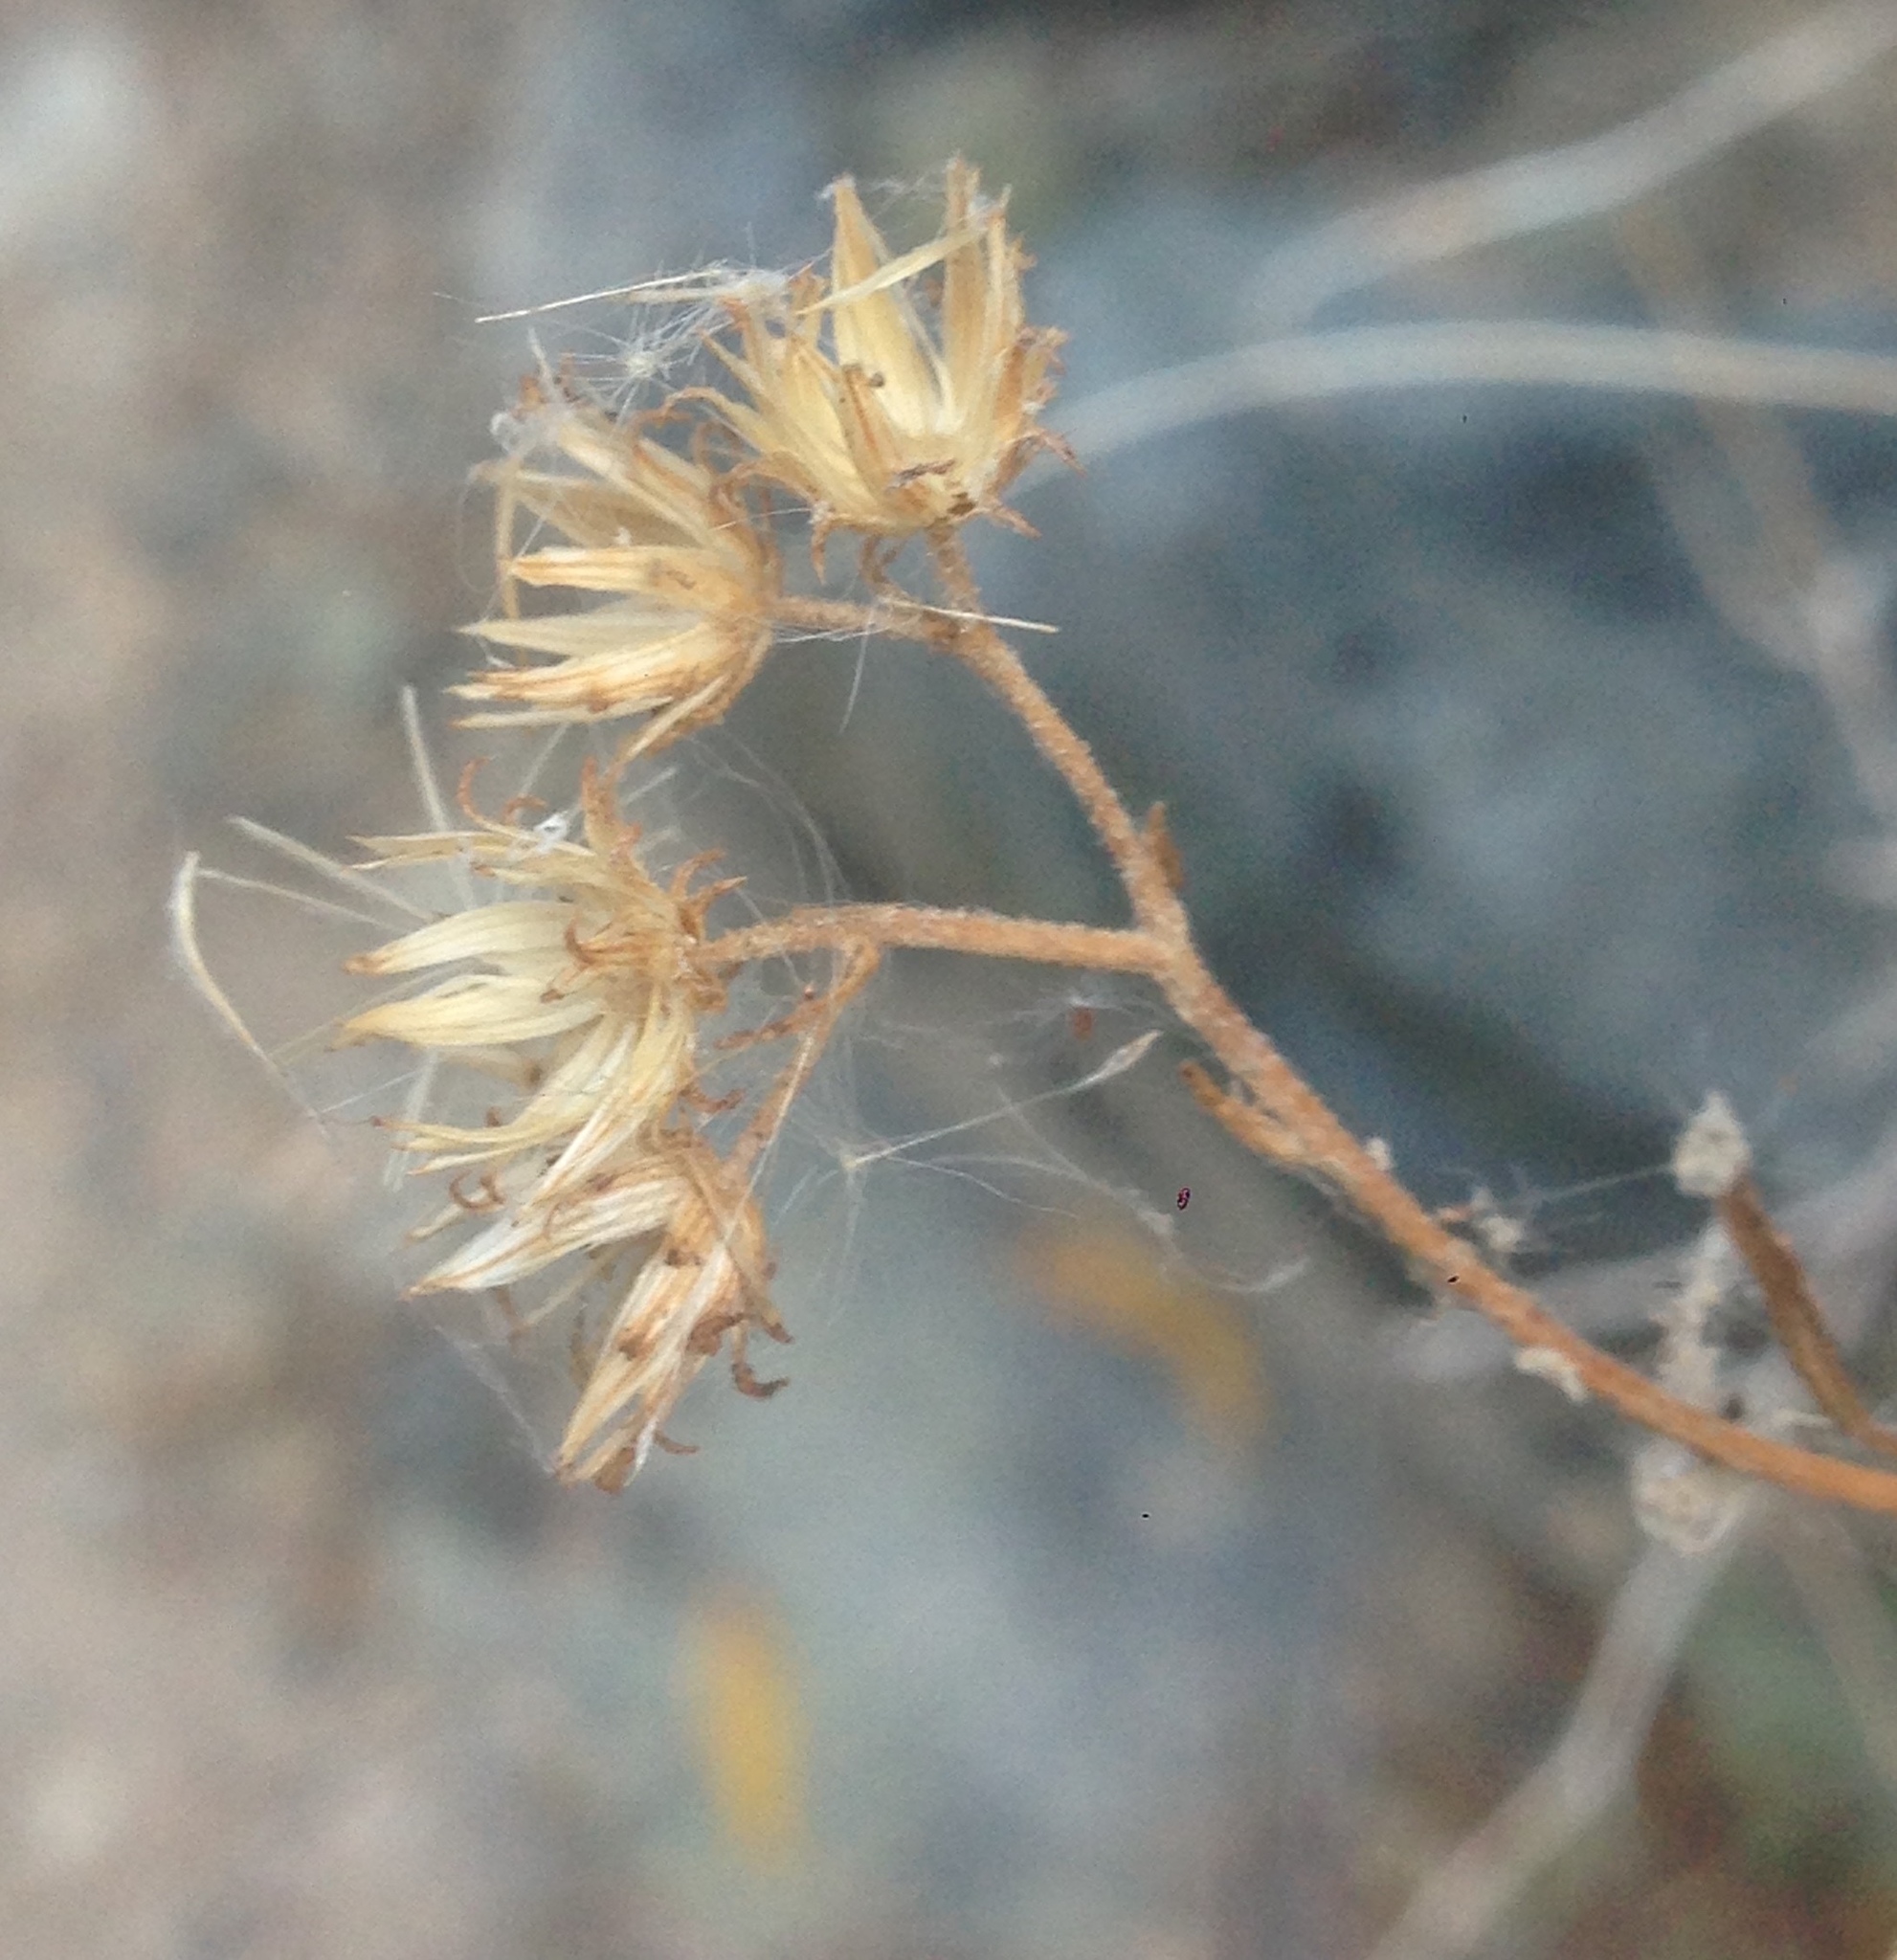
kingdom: Plantae
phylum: Tracheophyta
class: Magnoliopsida
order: Asterales
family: Asteraceae
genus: Pleurocoronis
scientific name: Pleurocoronis pluriseta
